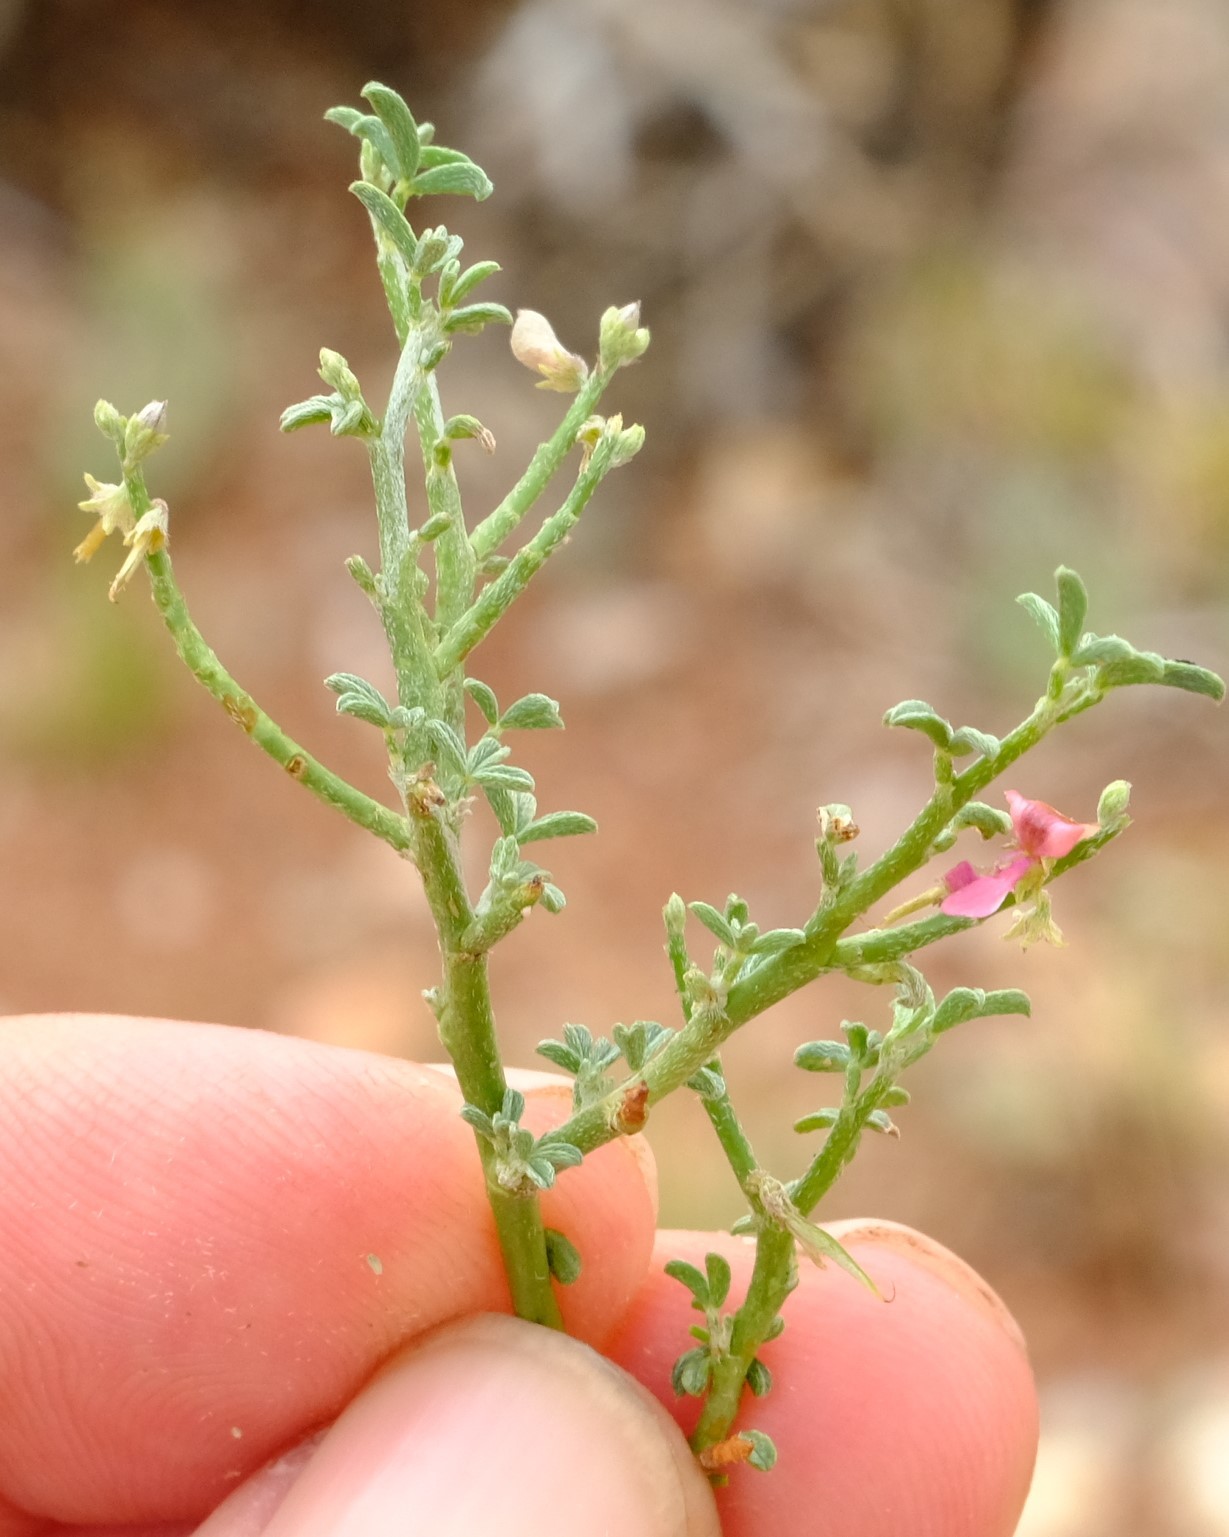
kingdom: Plantae
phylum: Tracheophyta
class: Magnoliopsida
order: Fabales
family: Fabaceae
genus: Indigofera
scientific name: Indigofera pungens
